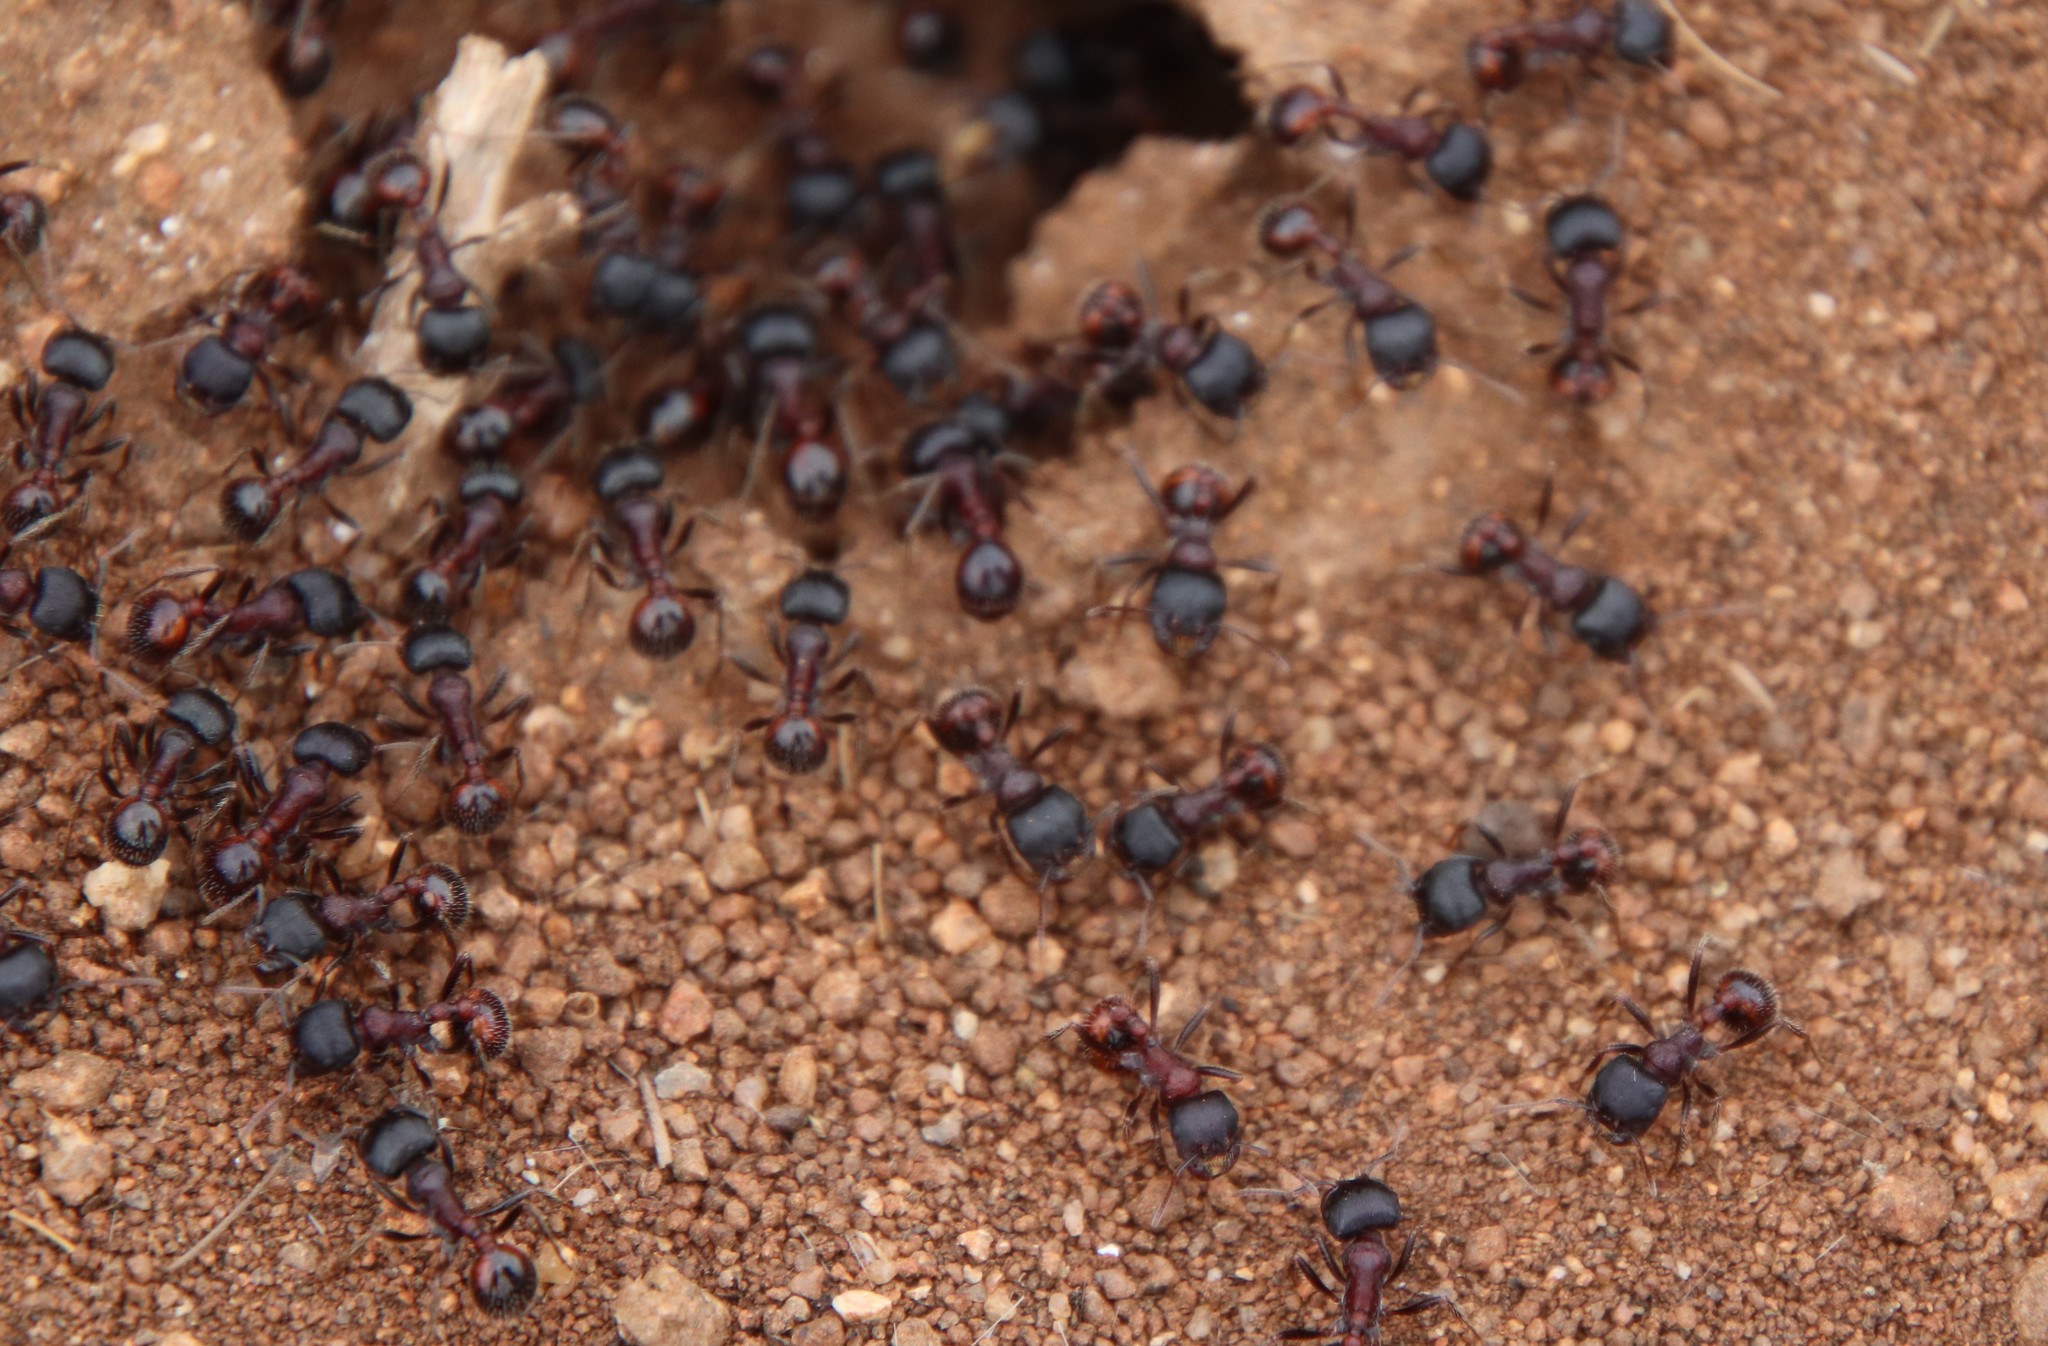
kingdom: Animalia
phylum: Arthropoda
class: Insecta
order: Hymenoptera
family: Formicidae
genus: Pogonomyrmex
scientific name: Pogonomyrmex rugosus
